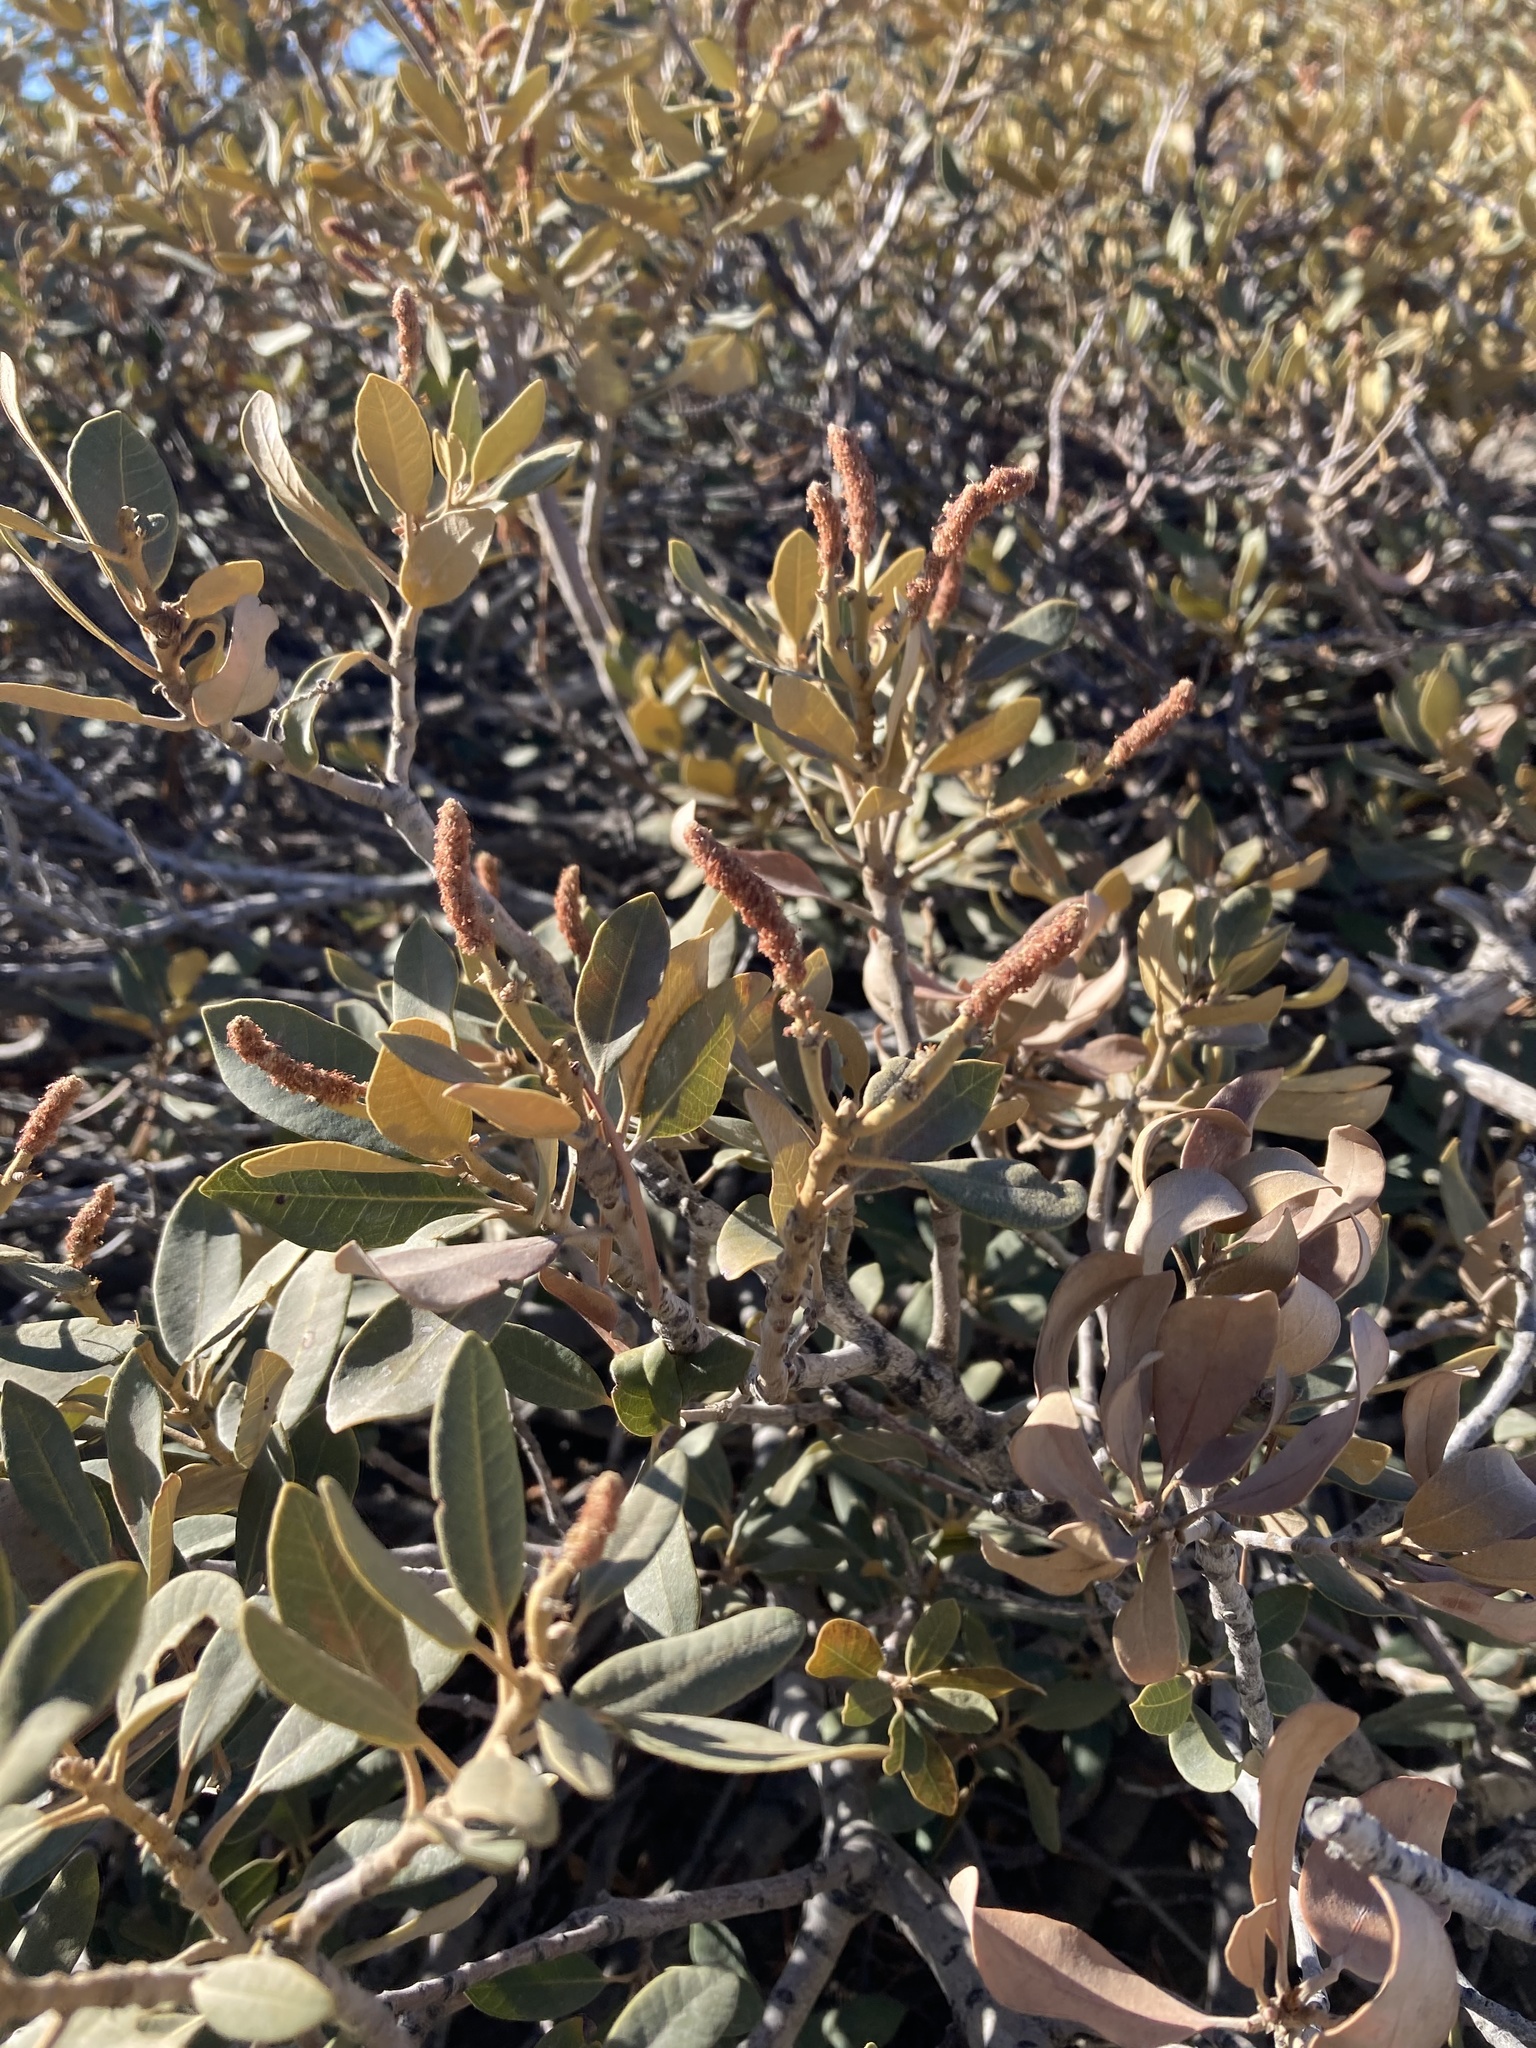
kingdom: Plantae
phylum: Tracheophyta
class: Magnoliopsida
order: Fagales
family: Fagaceae
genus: Chrysolepis
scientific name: Chrysolepis sempervirens
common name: Bush chinquapin
